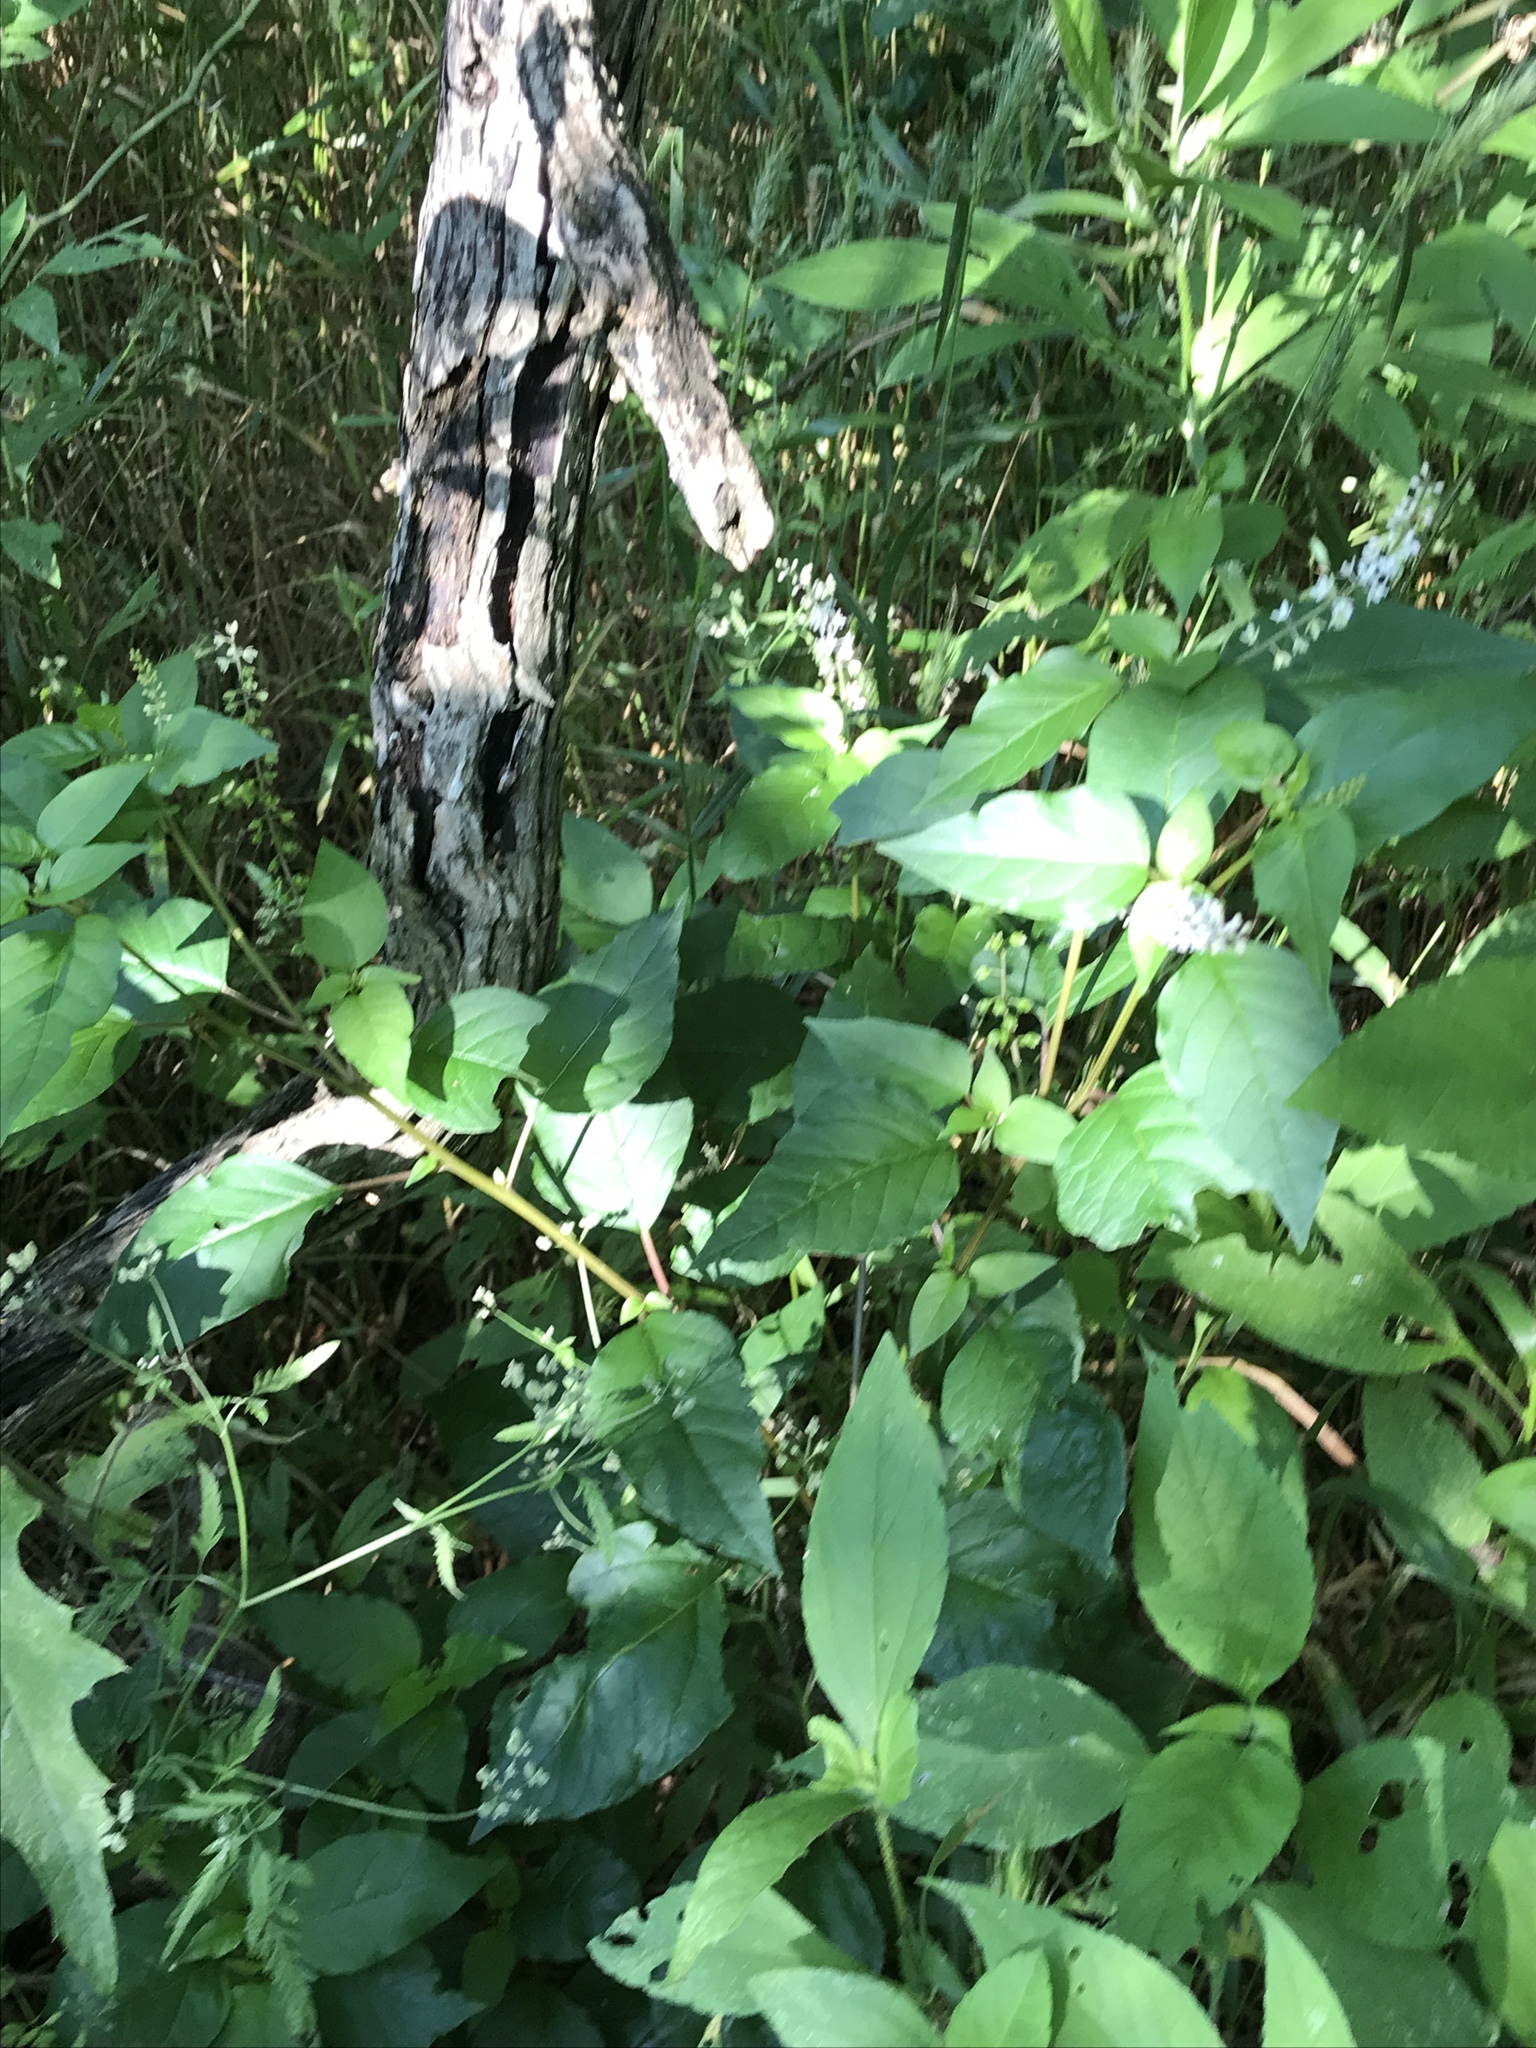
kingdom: Plantae
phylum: Tracheophyta
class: Magnoliopsida
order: Caryophyllales
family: Phytolaccaceae
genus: Rivina
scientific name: Rivina humilis
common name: Rougeplant
